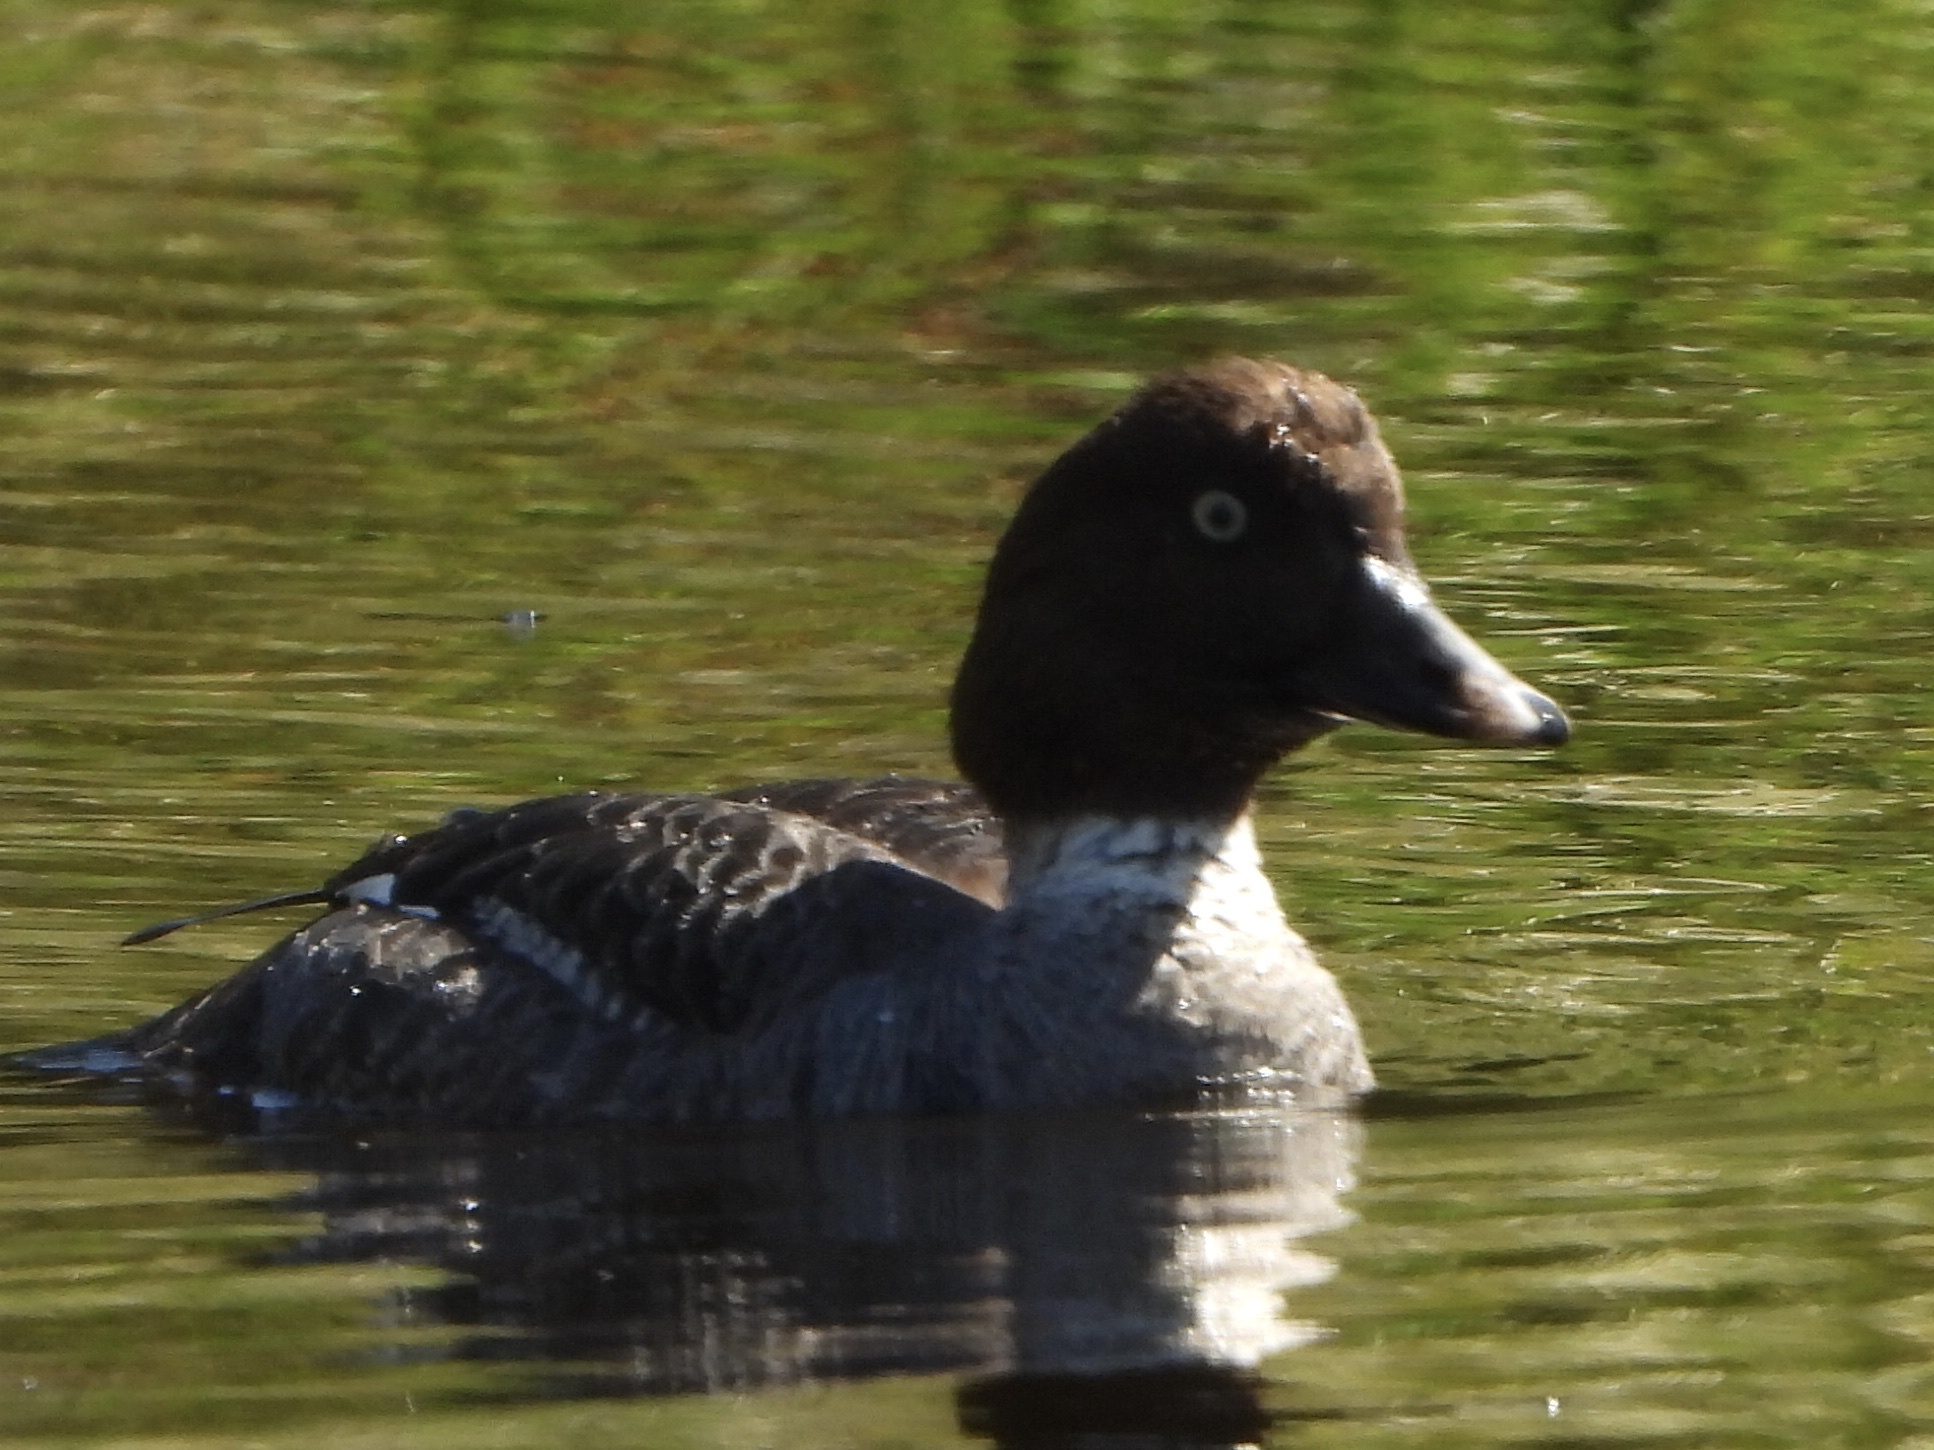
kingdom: Animalia
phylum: Chordata
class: Aves
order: Anseriformes
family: Anatidae
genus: Bucephala
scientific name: Bucephala clangula
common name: Common goldeneye
